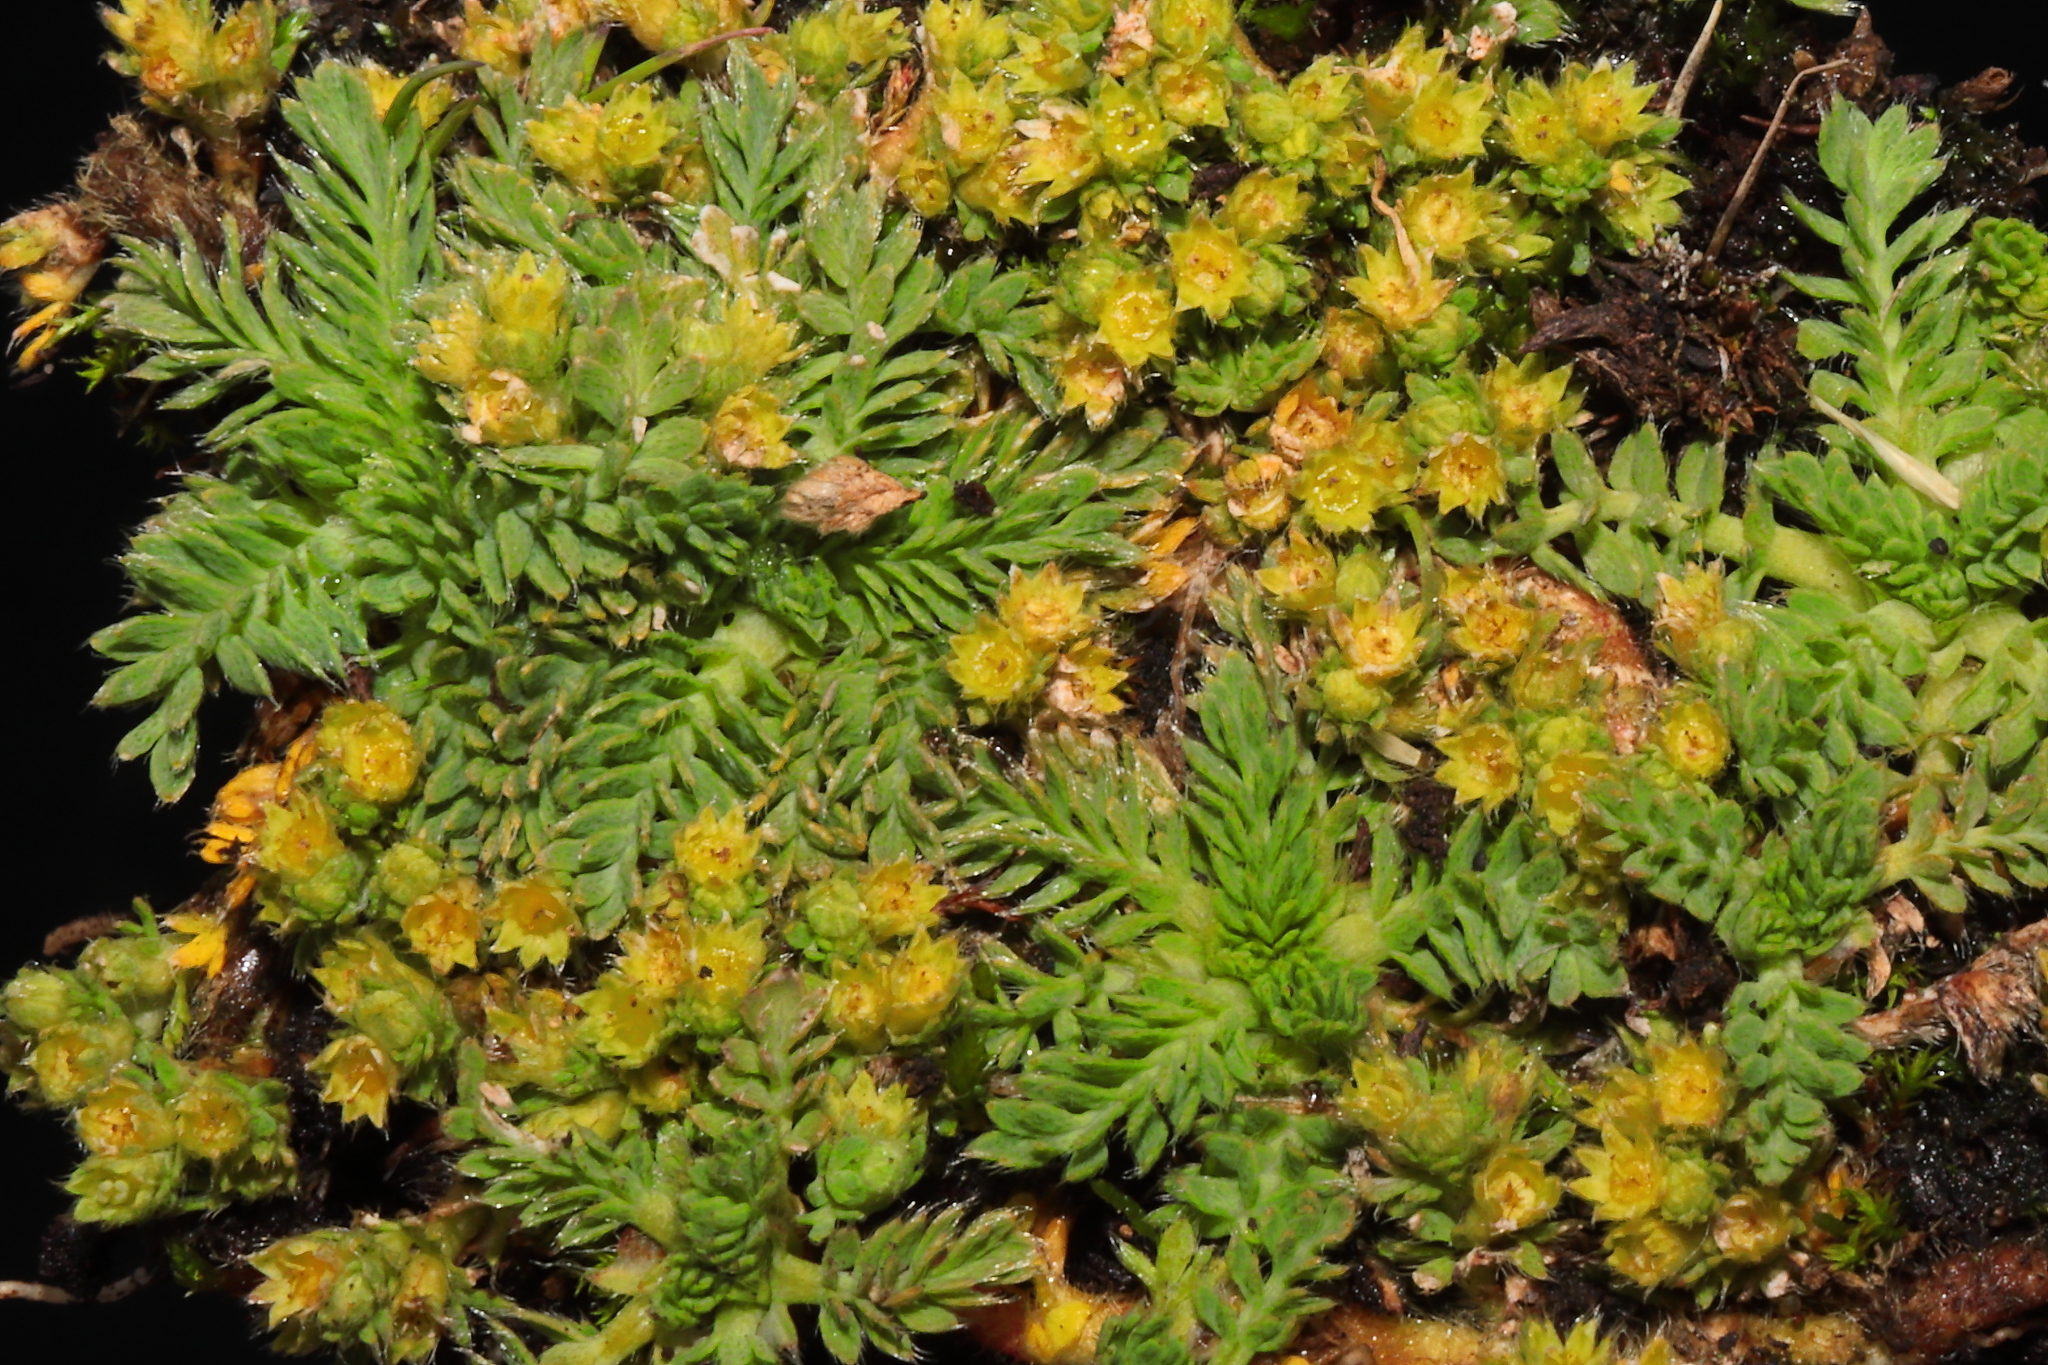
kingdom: Plantae
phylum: Tracheophyta
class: Magnoliopsida
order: Rosales
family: Rosaceae
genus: Lachemilla
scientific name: Lachemilla
